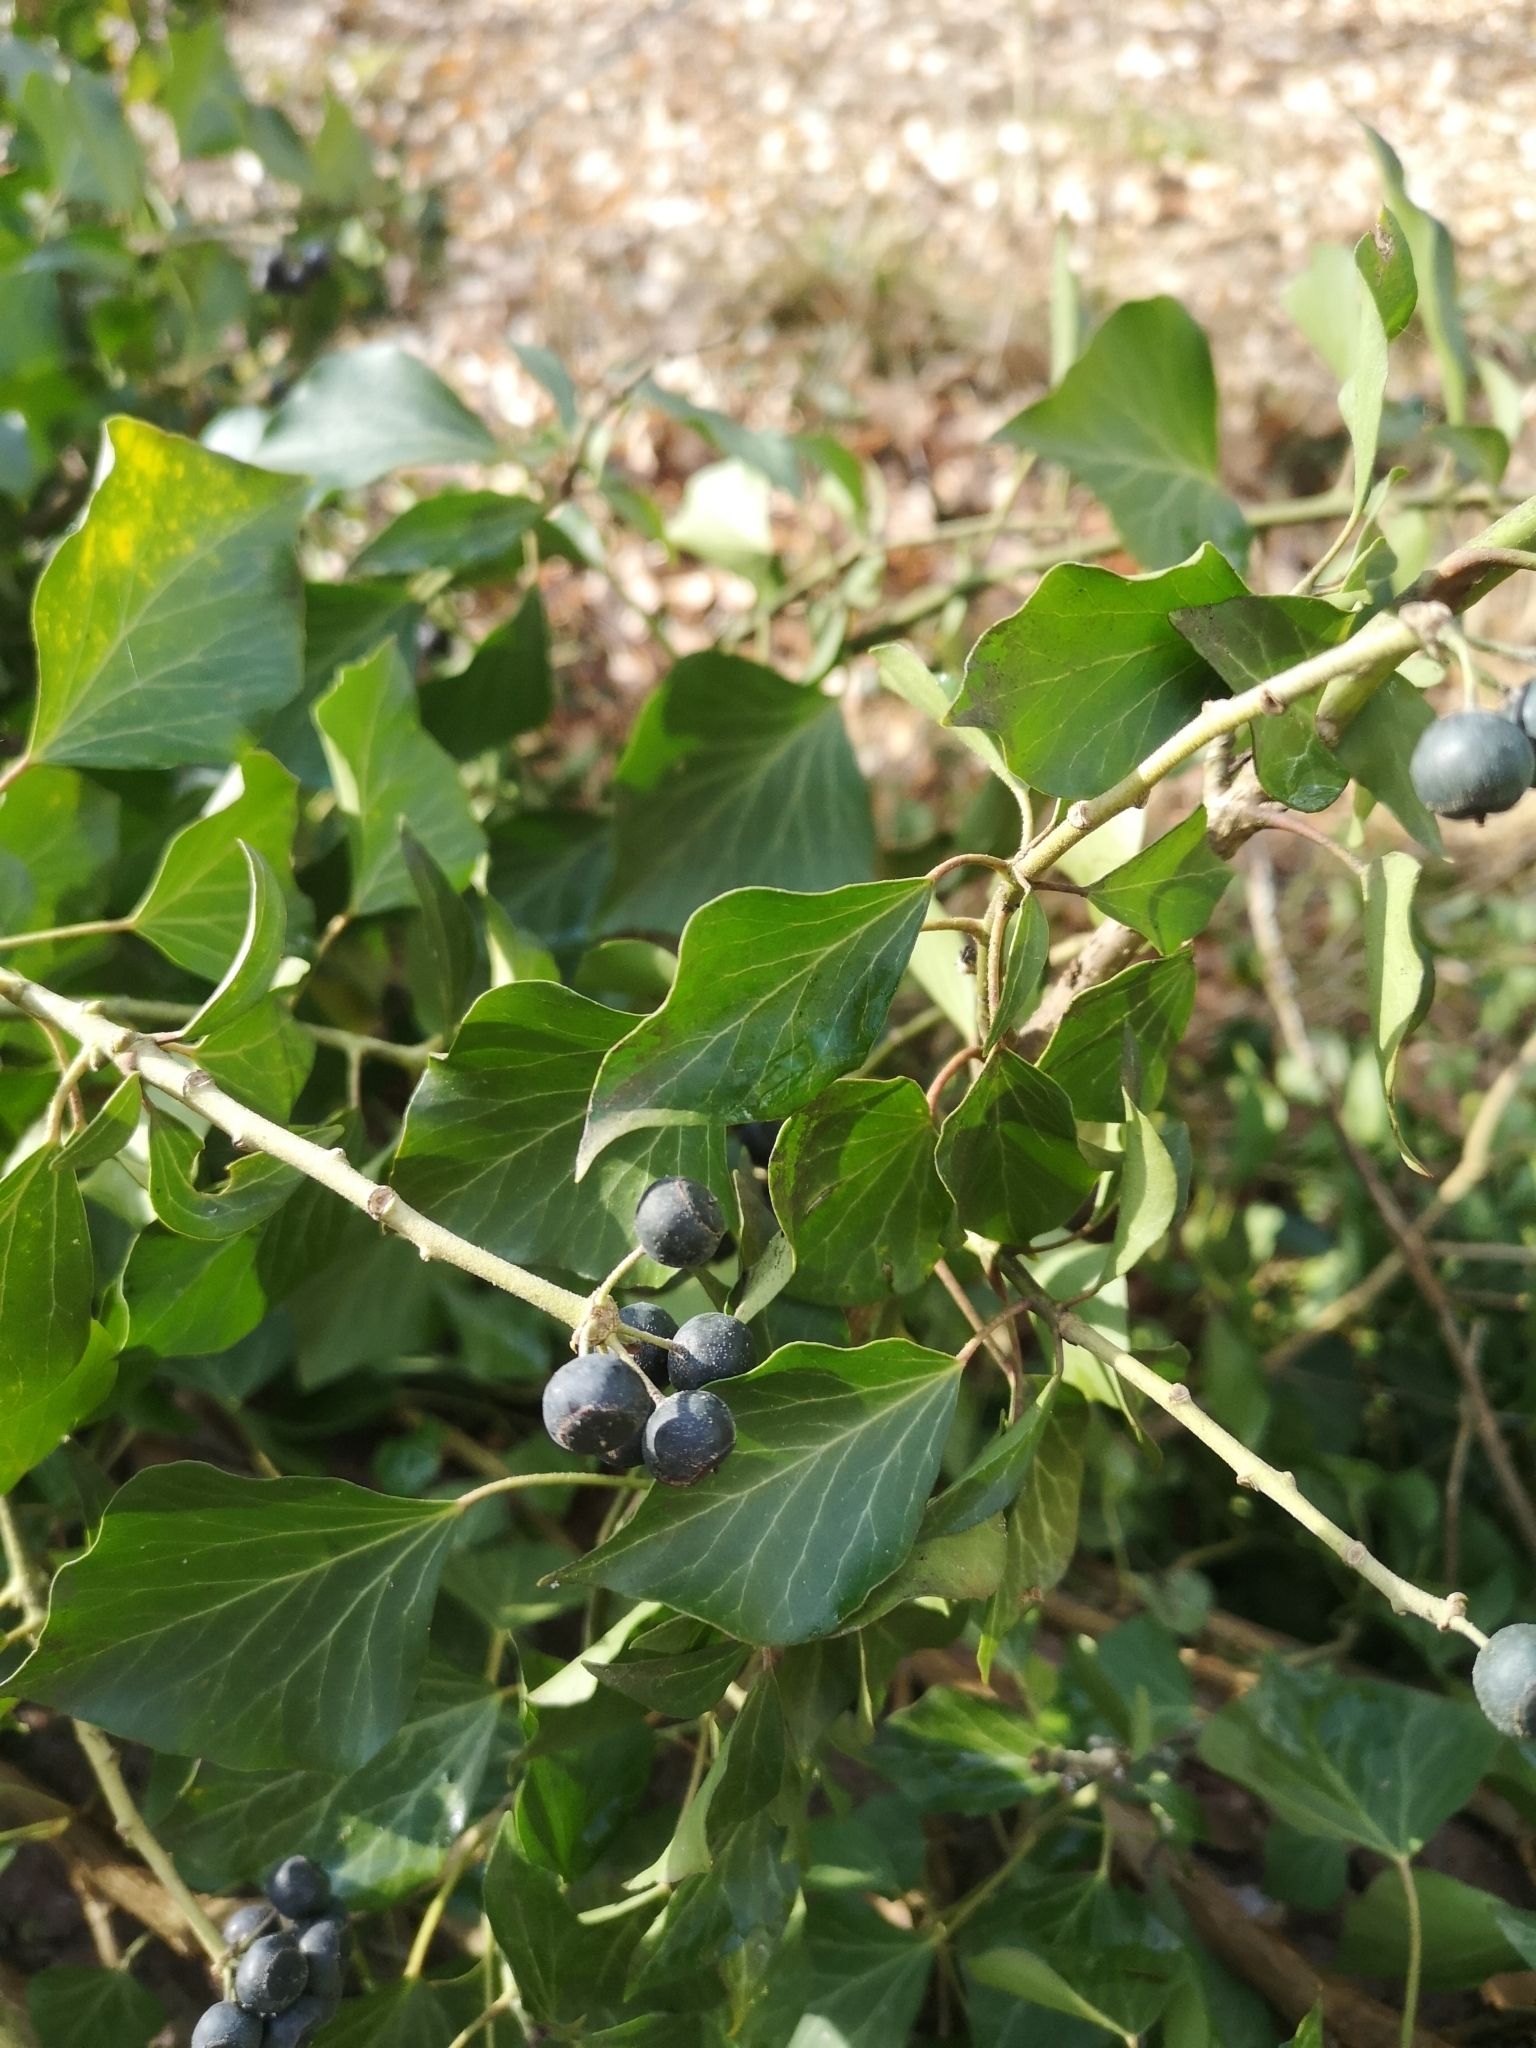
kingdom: Plantae
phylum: Tracheophyta
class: Magnoliopsida
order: Apiales
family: Araliaceae
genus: Hedera
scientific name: Hedera helix
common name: Ivy
